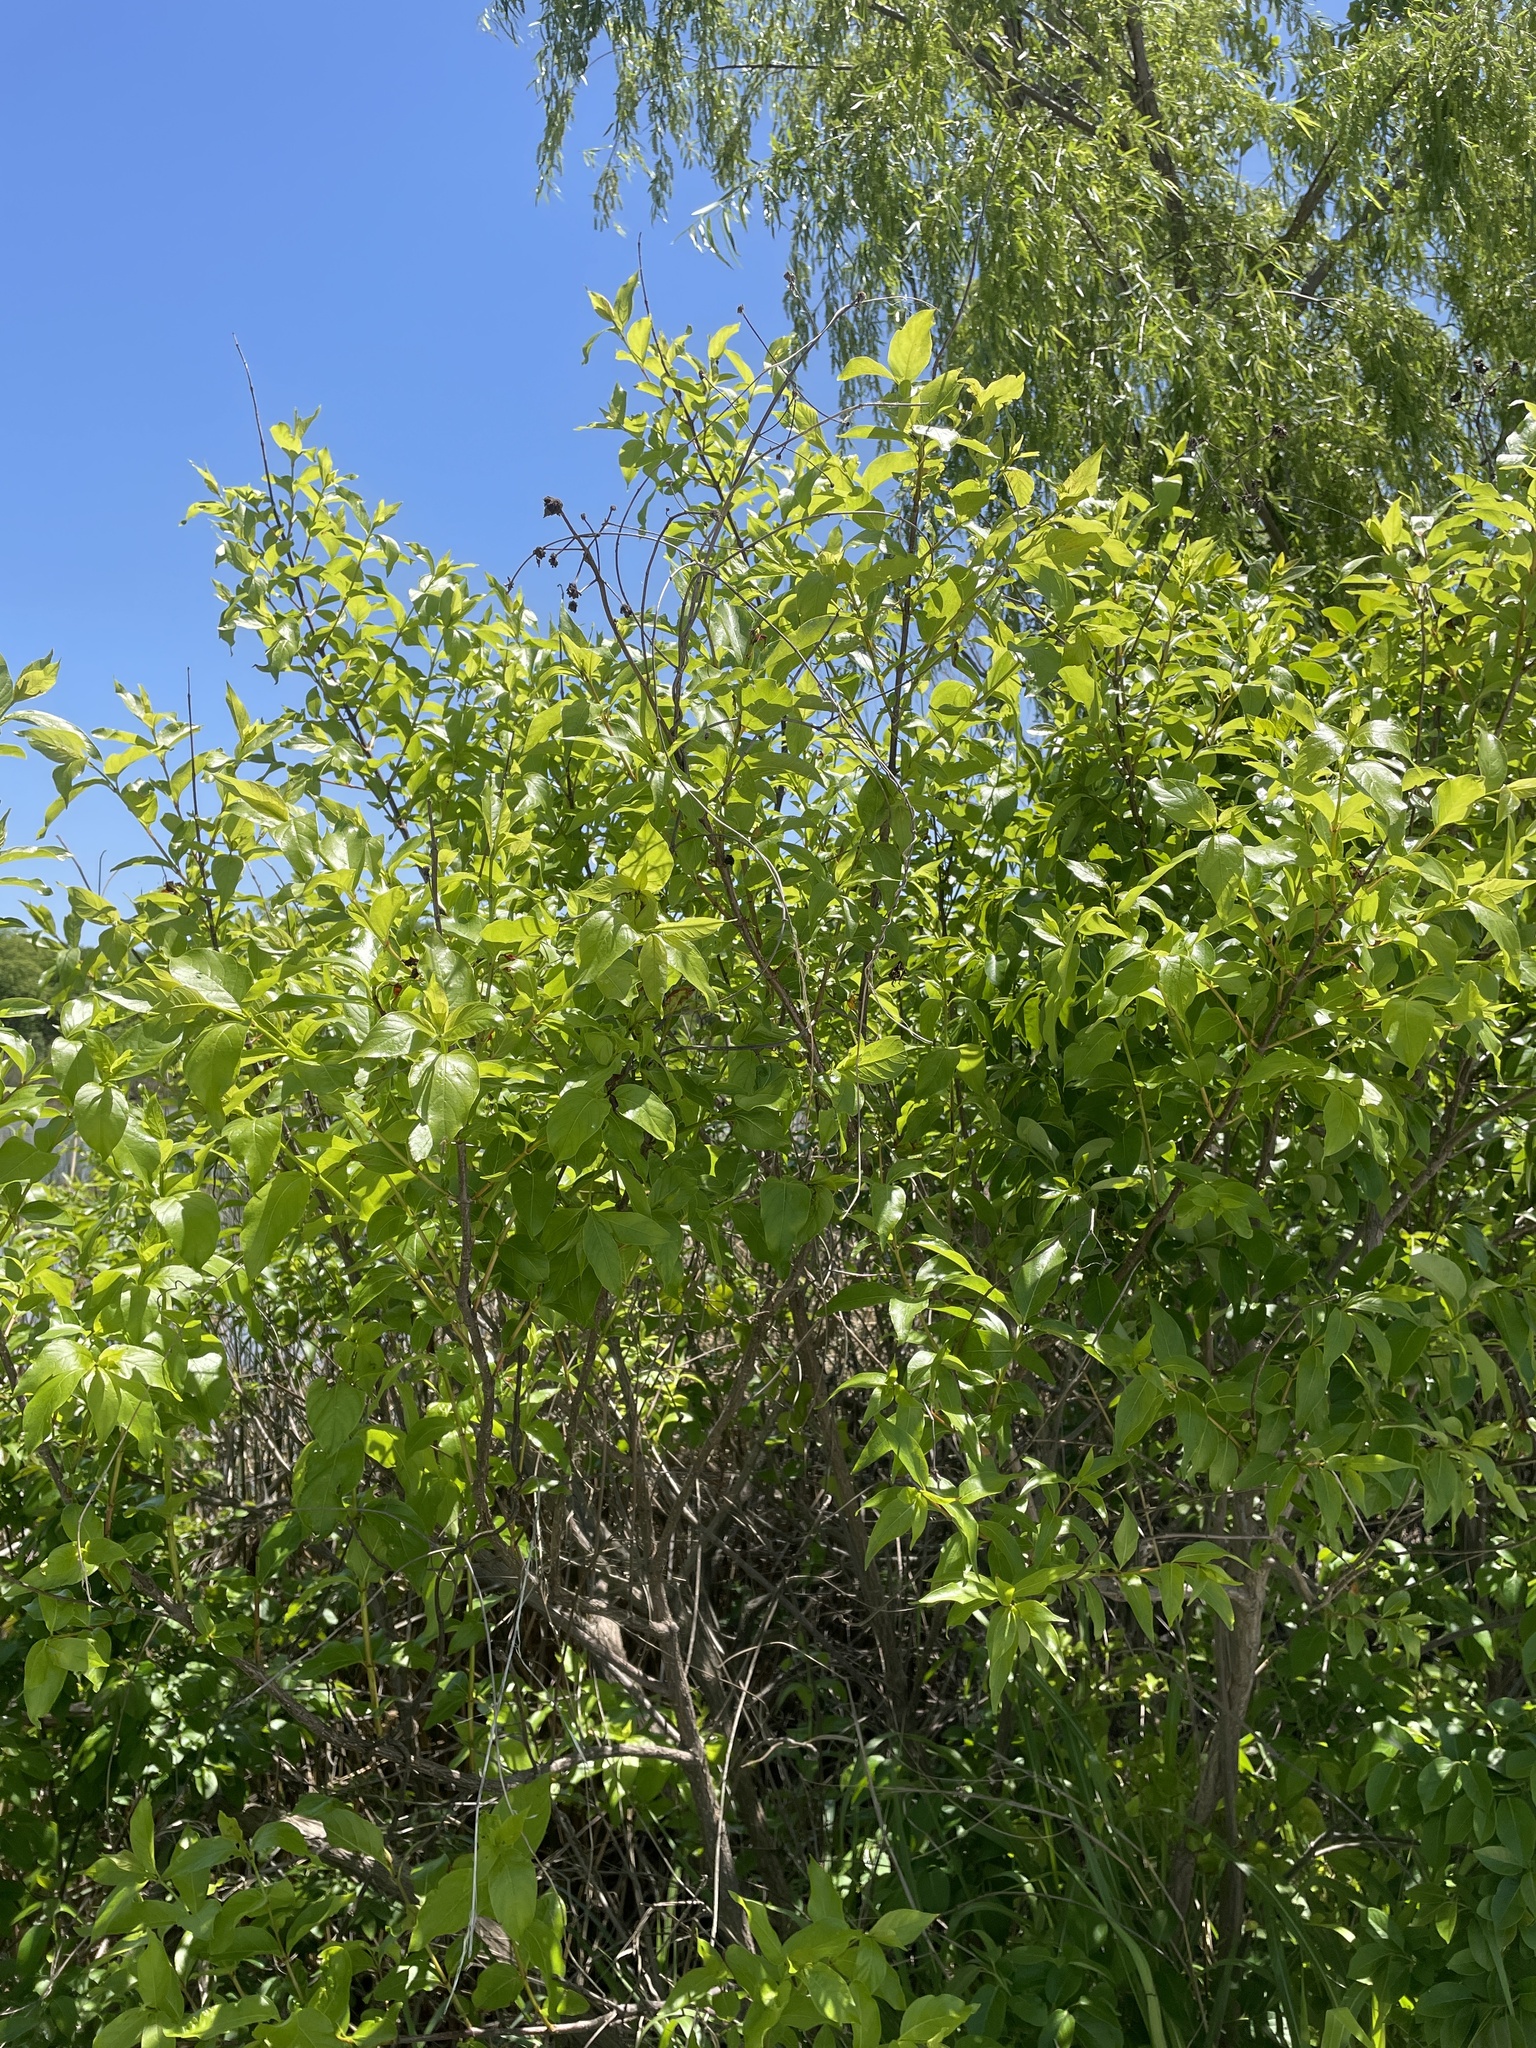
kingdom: Plantae
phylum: Tracheophyta
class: Magnoliopsida
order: Gentianales
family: Rubiaceae
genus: Cephalanthus
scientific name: Cephalanthus occidentalis
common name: Button-willow
